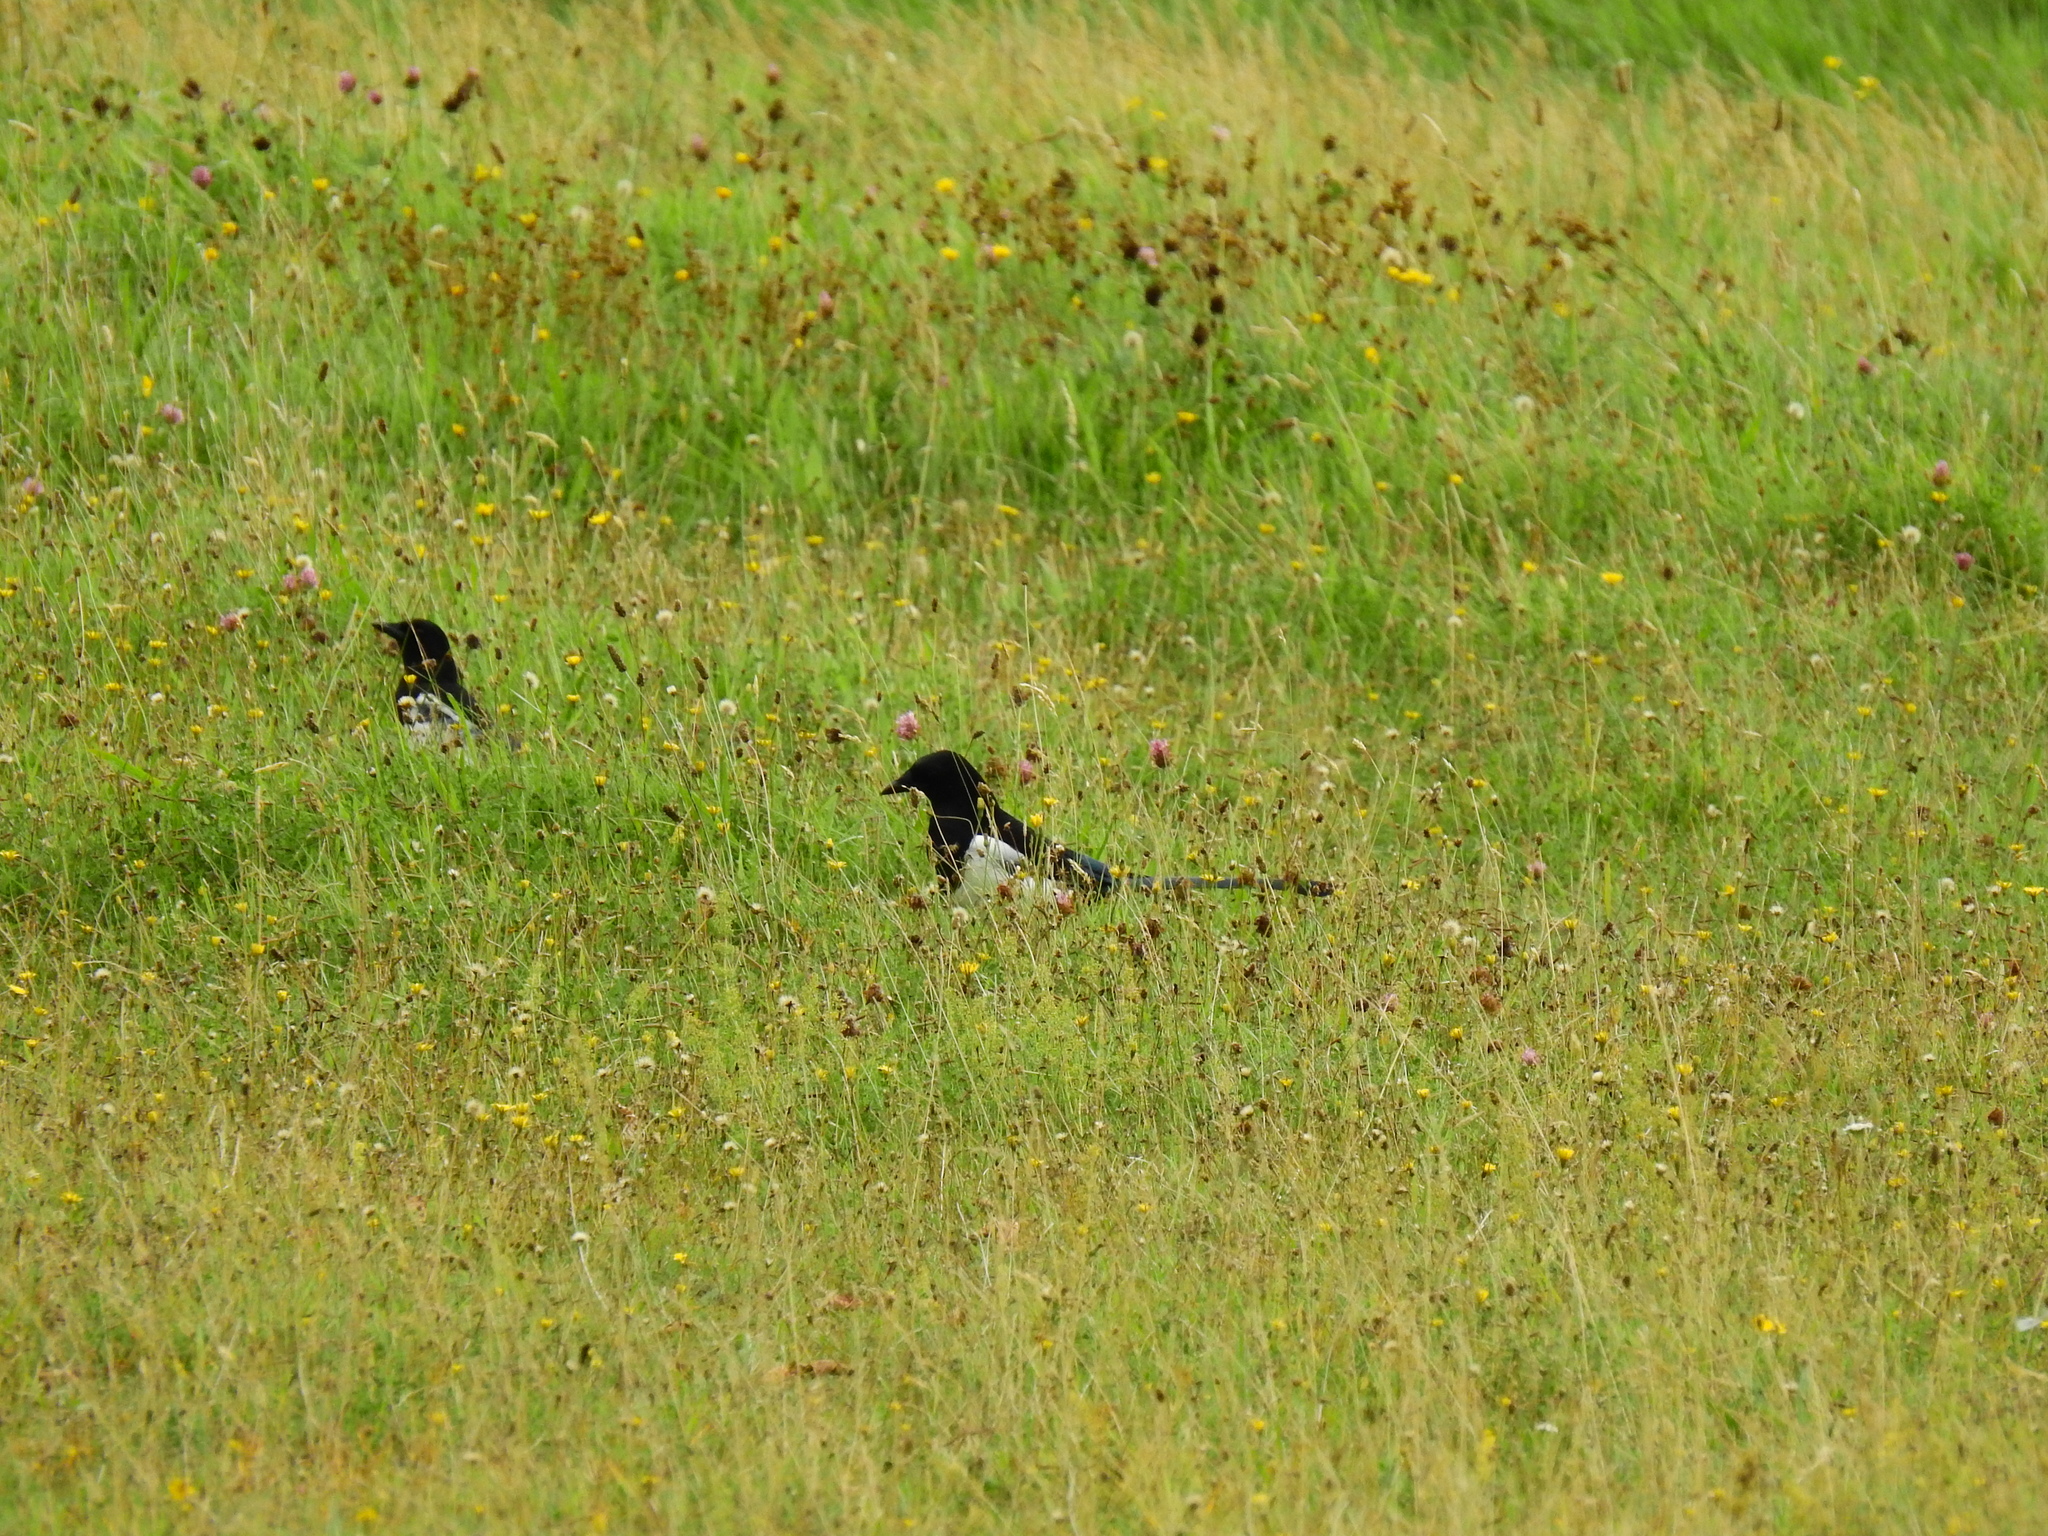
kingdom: Animalia
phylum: Chordata
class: Aves
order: Passeriformes
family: Corvidae
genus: Pica
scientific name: Pica pica
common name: Eurasian magpie
